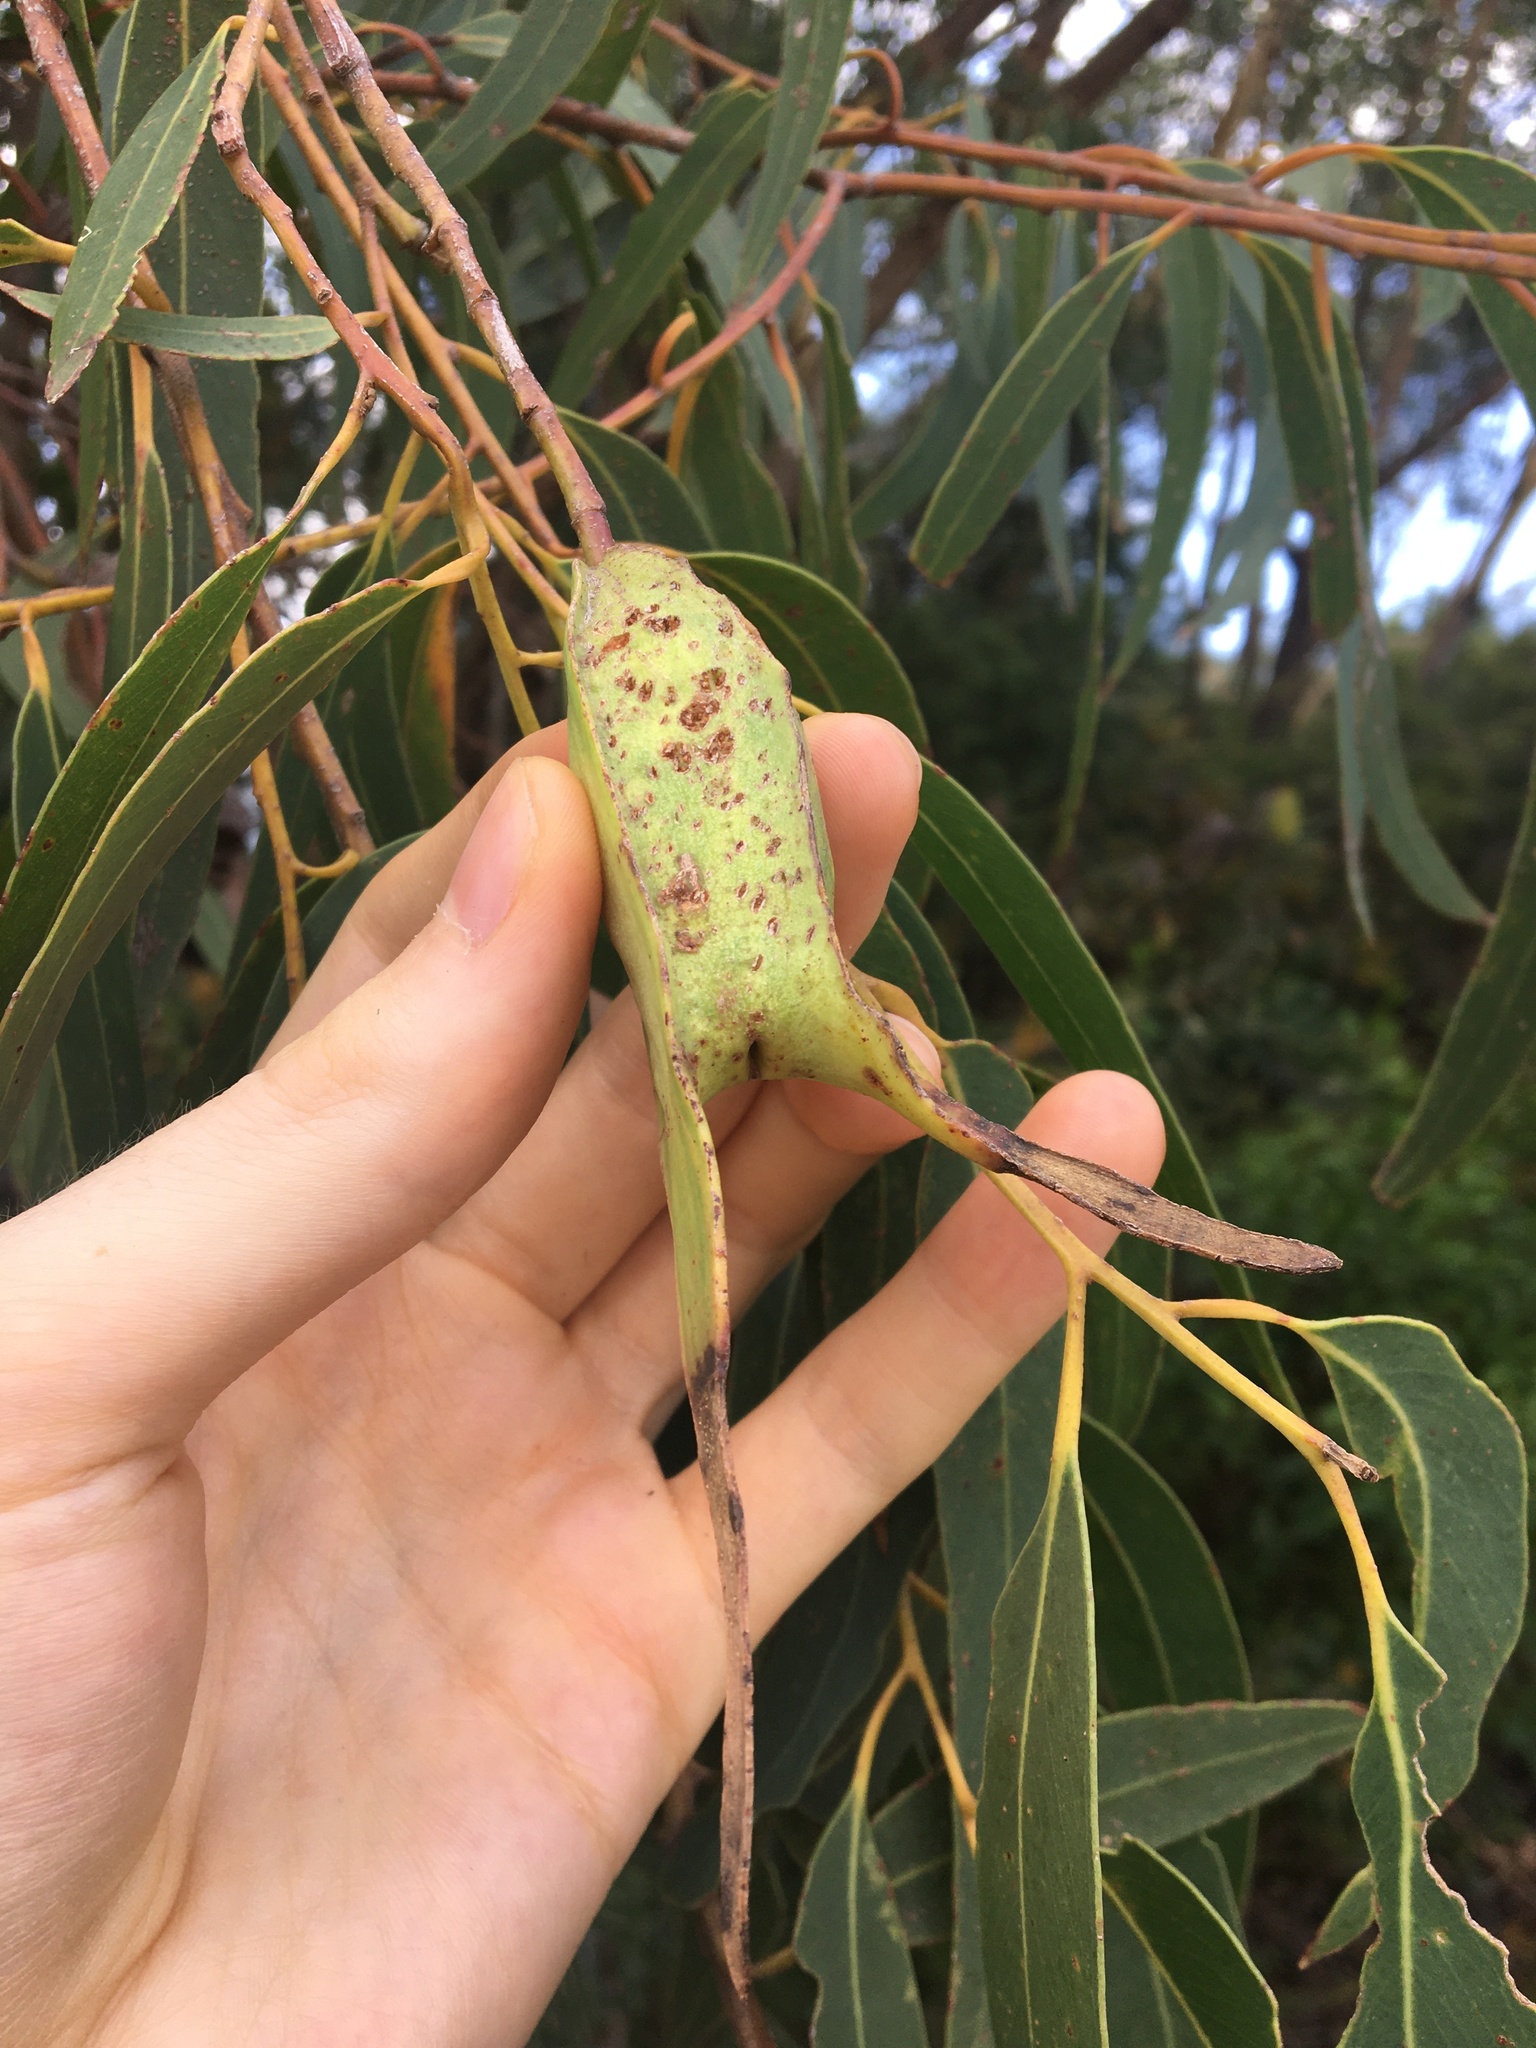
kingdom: Animalia
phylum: Arthropoda
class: Insecta
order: Hemiptera
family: Eriococcidae
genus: Apiomorpha
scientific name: Apiomorpha duplex
